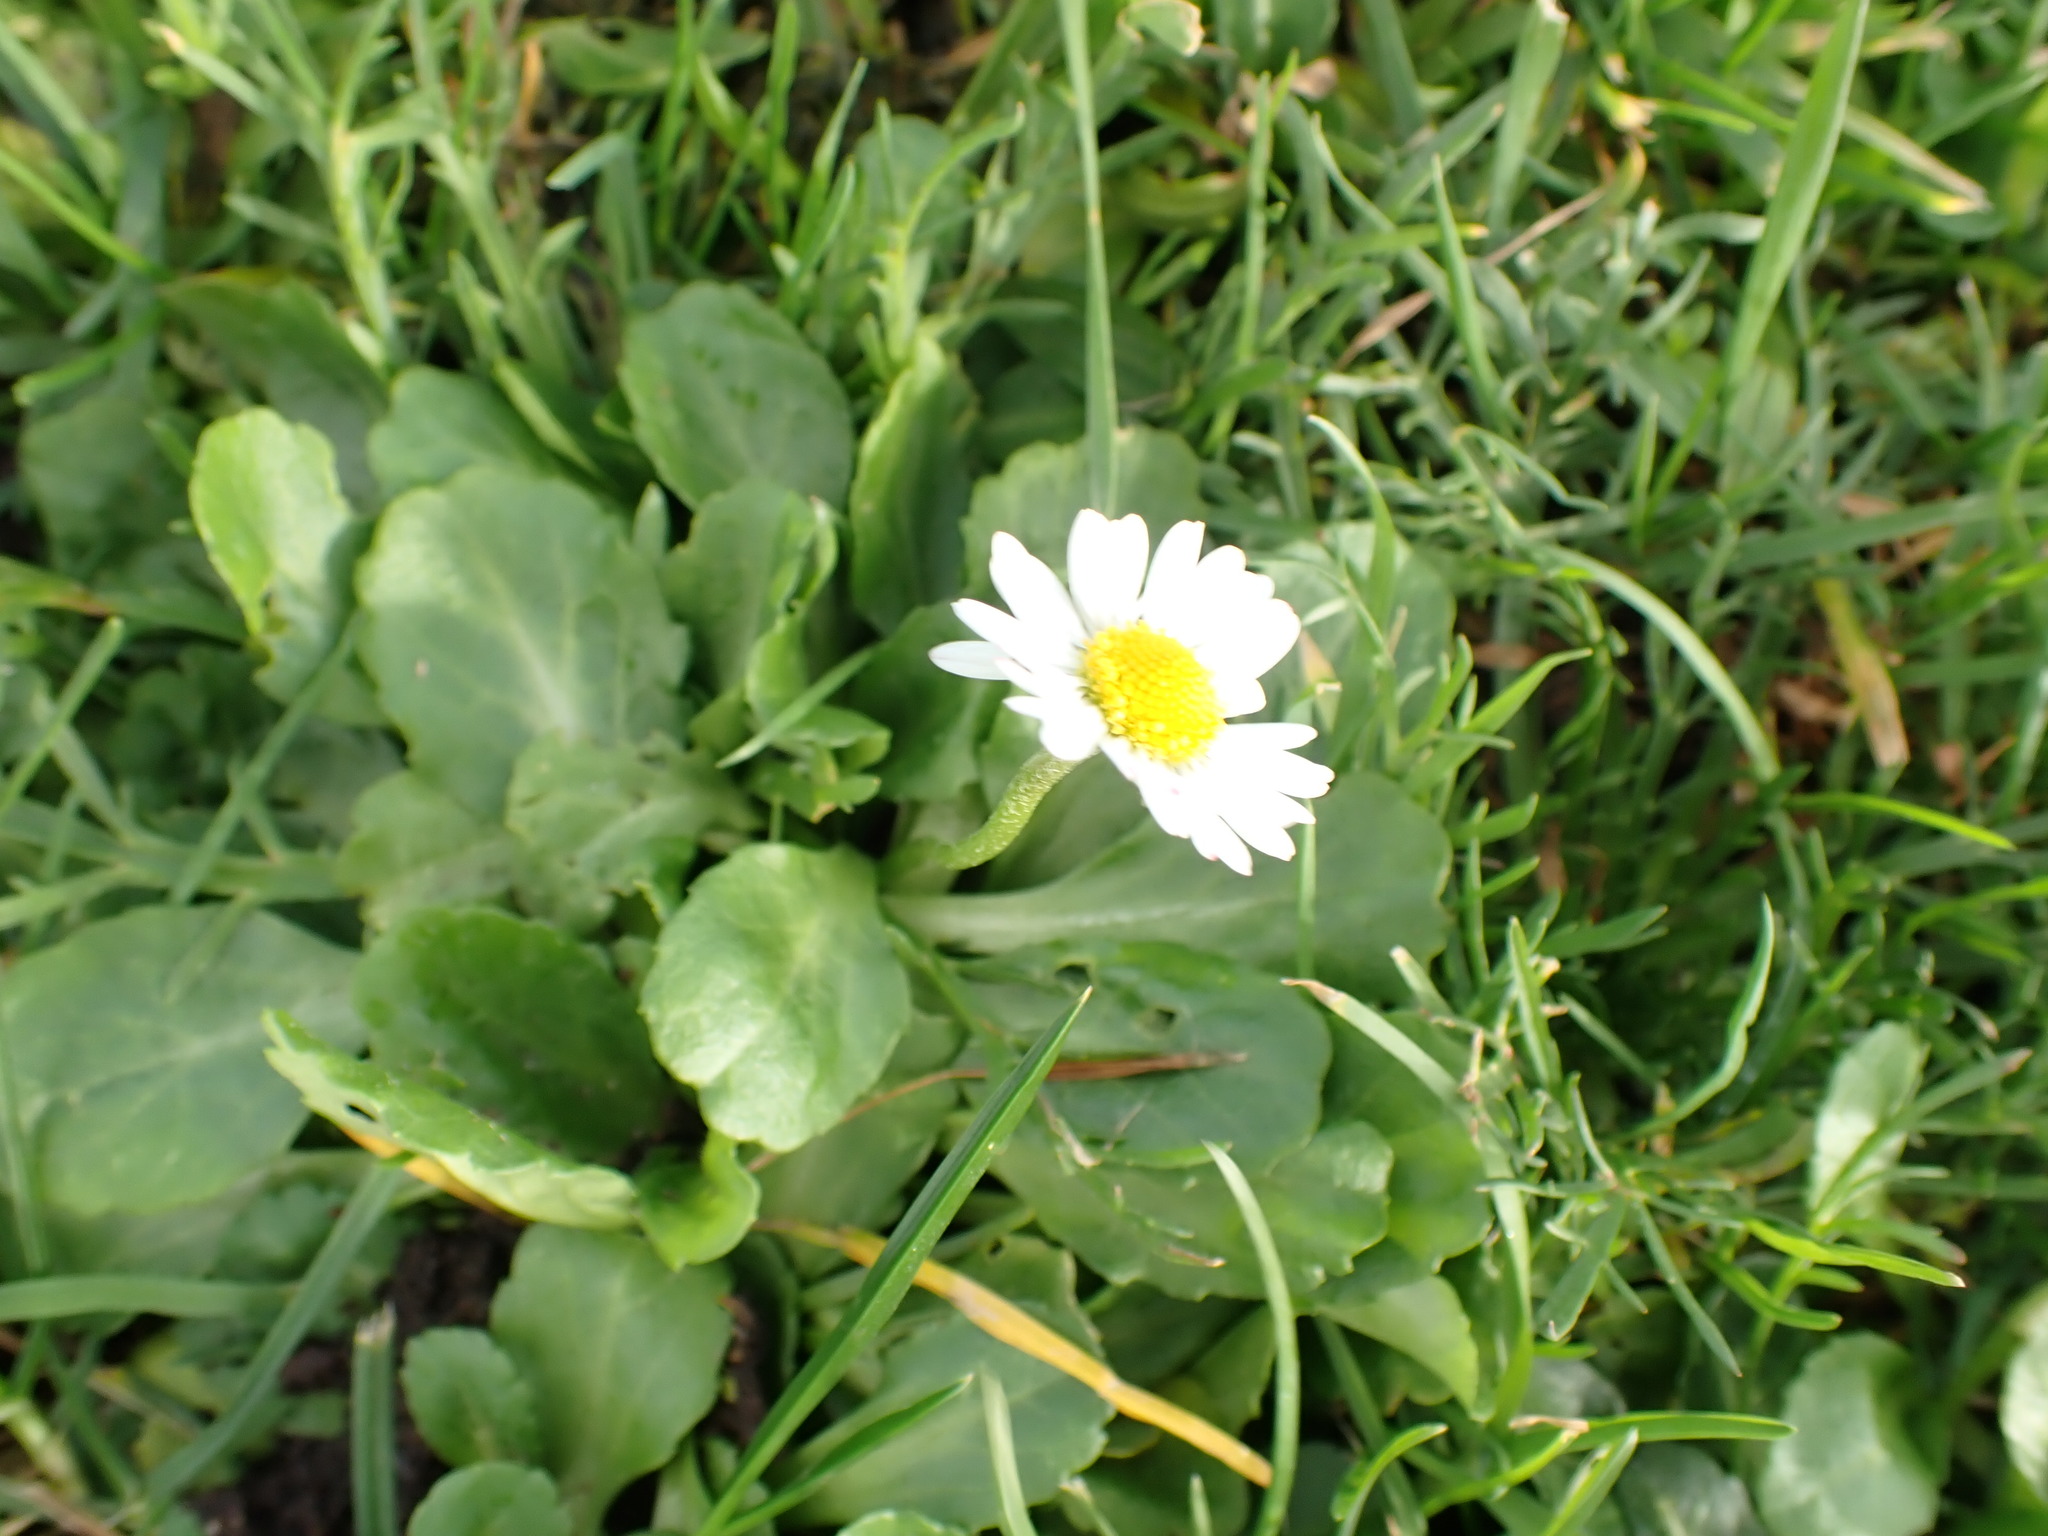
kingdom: Plantae
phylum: Tracheophyta
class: Magnoliopsida
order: Asterales
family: Asteraceae
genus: Bellis
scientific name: Bellis perennis
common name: Lawndaisy
